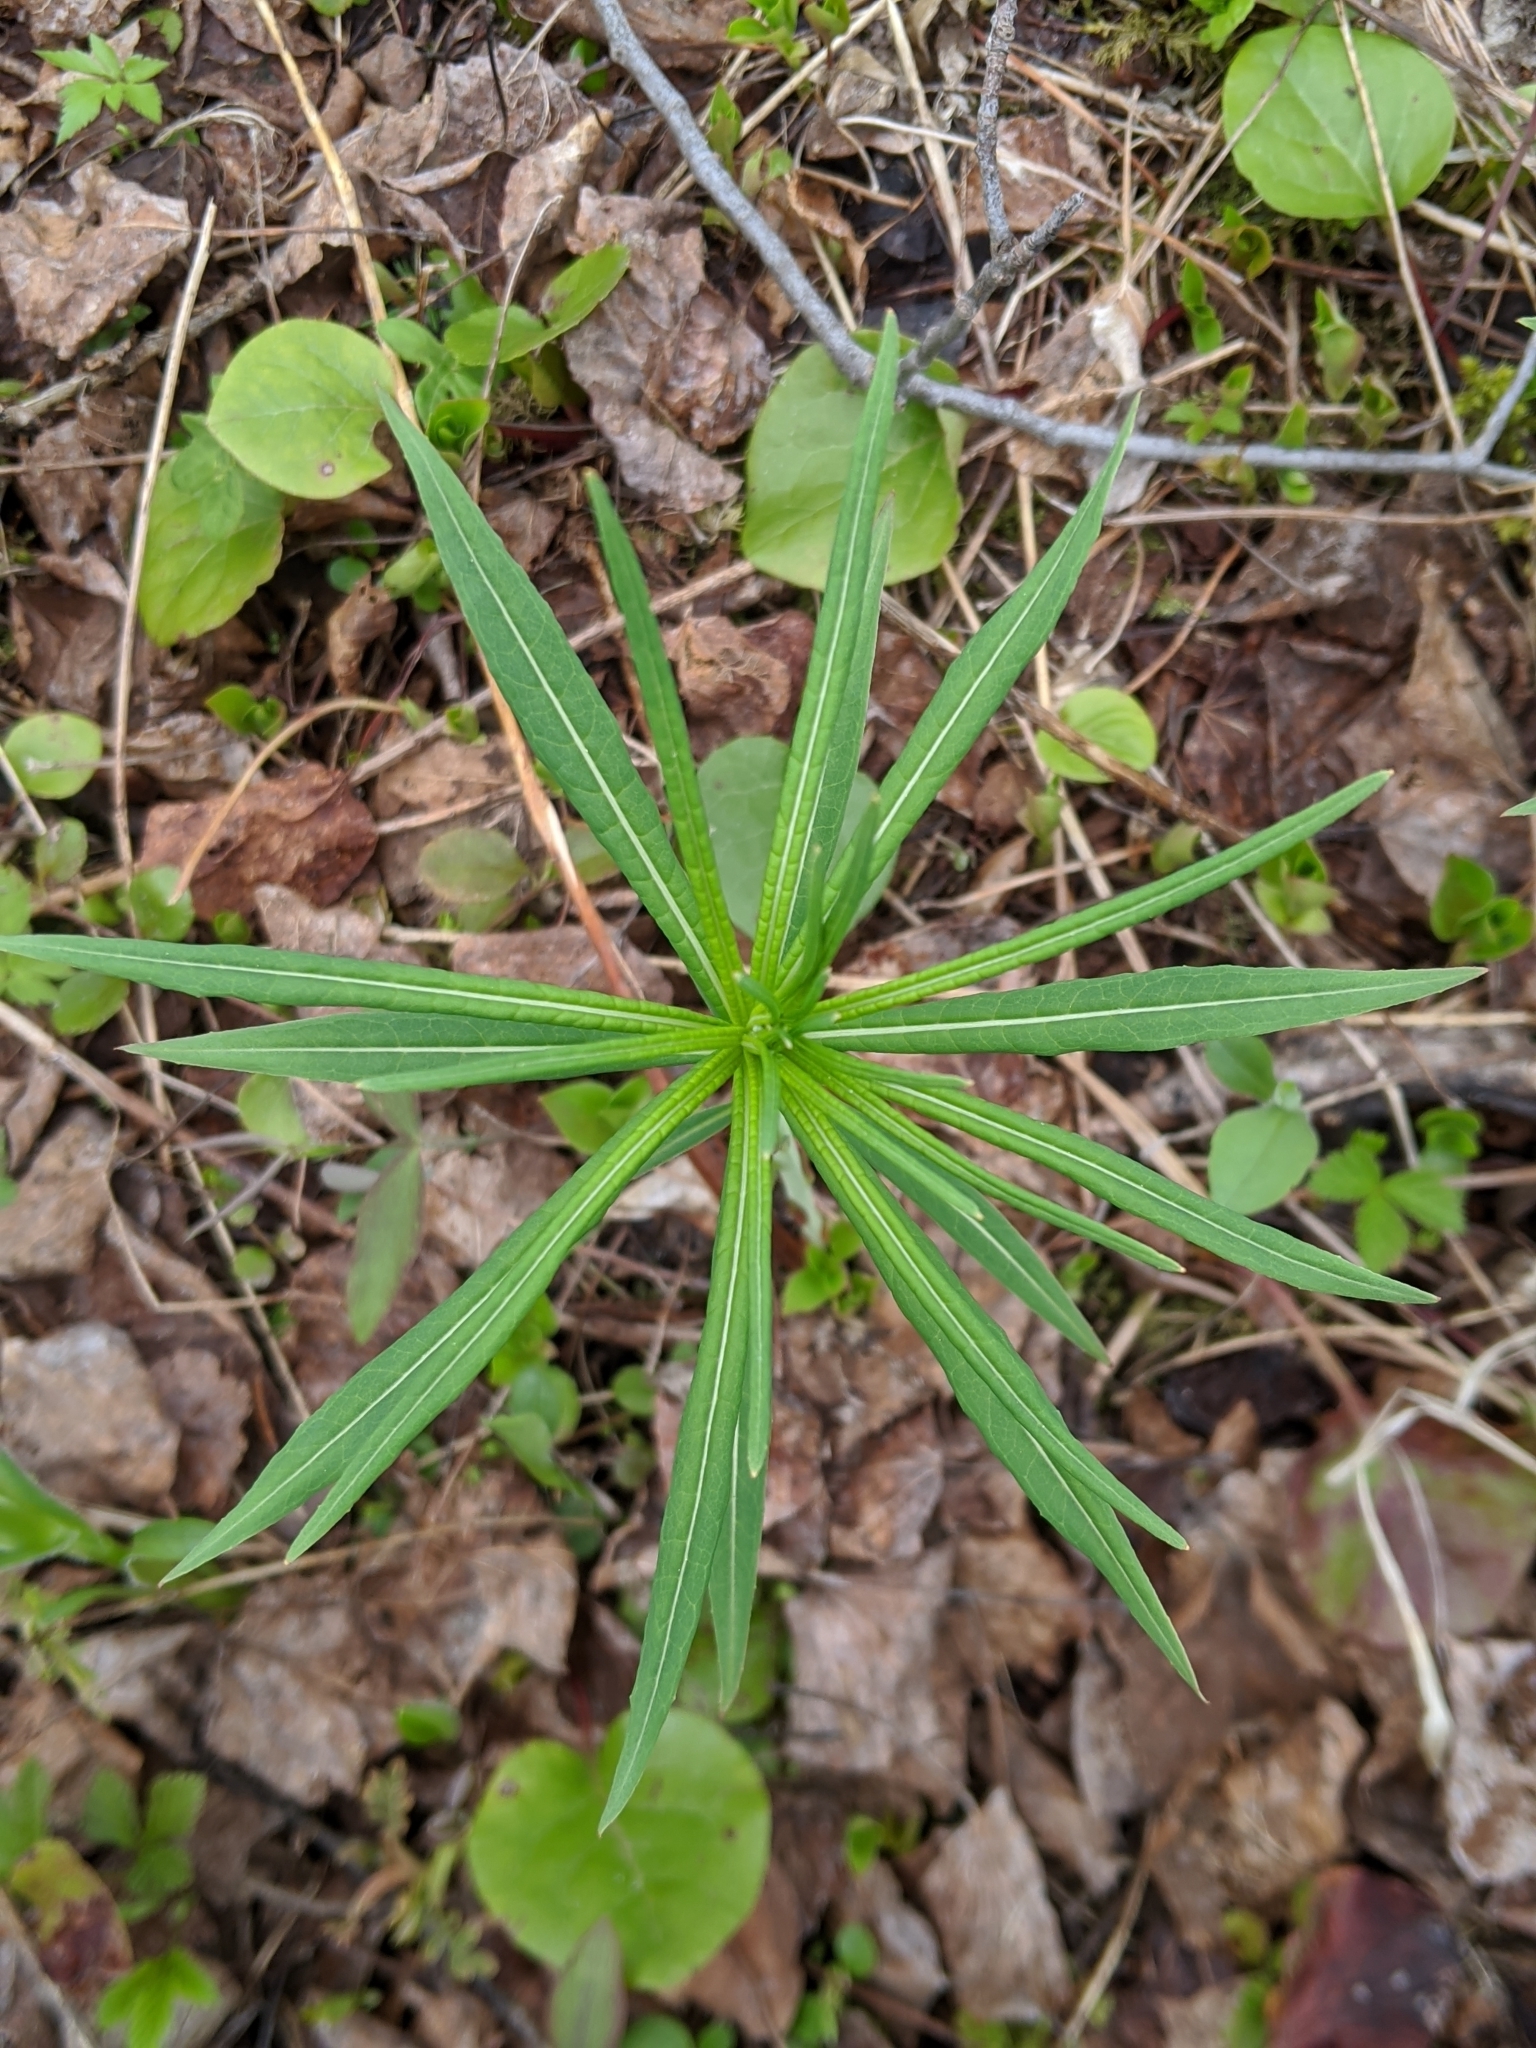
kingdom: Plantae
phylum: Tracheophyta
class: Magnoliopsida
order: Myrtales
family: Onagraceae
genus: Chamaenerion
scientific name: Chamaenerion angustifolium
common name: Fireweed
